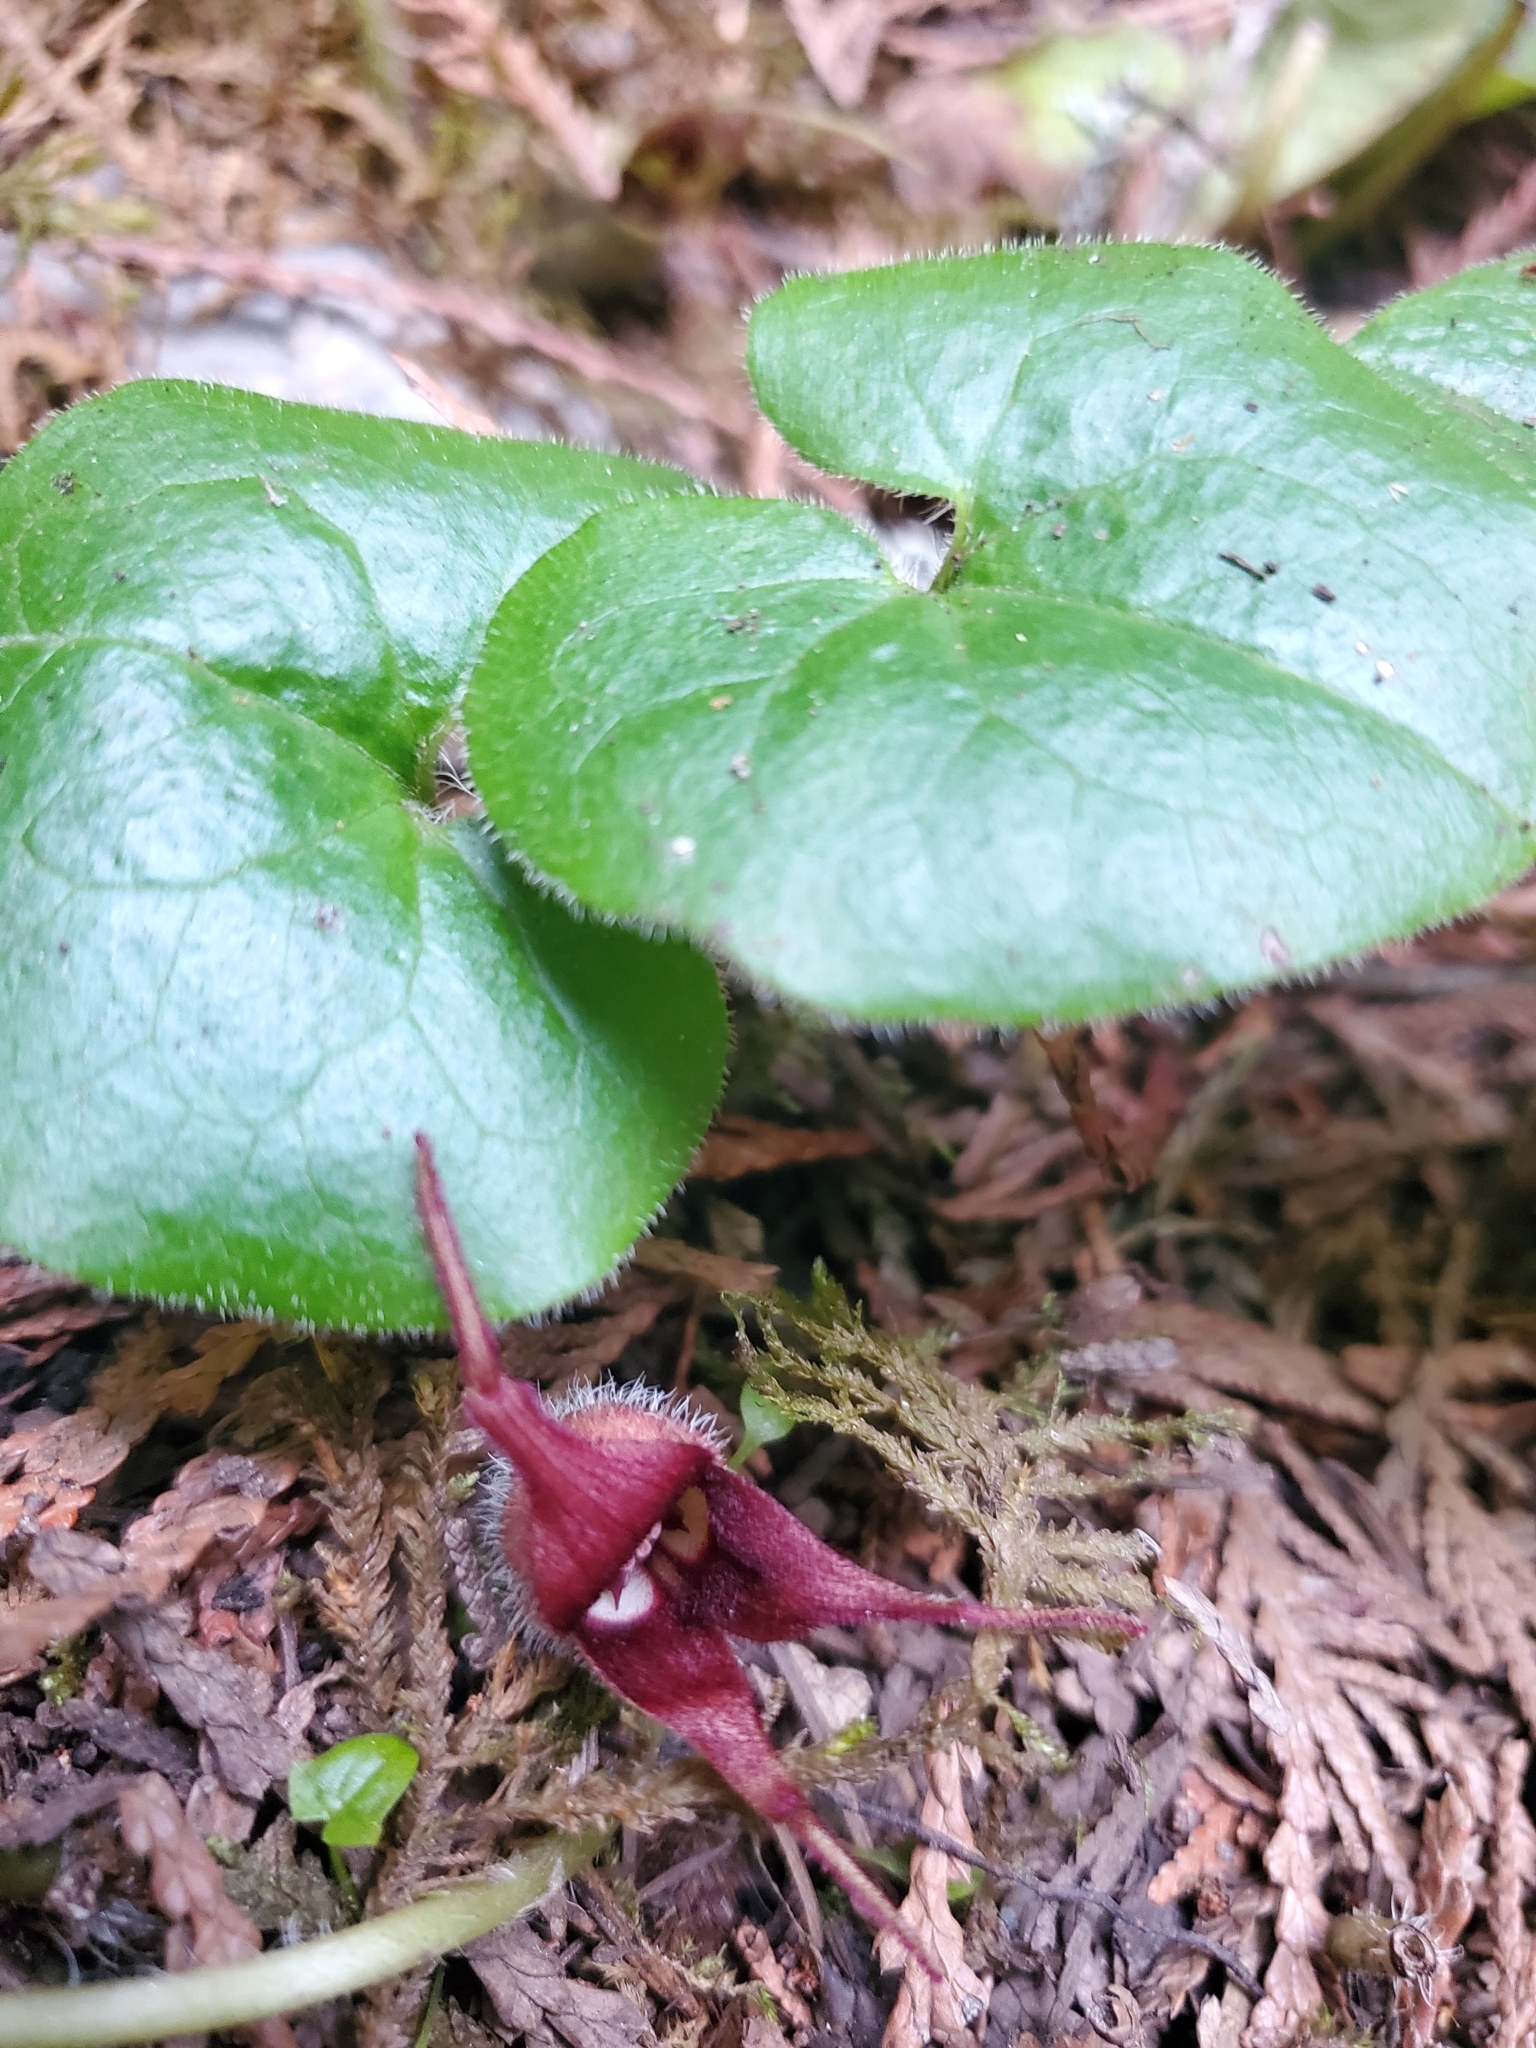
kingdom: Plantae
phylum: Tracheophyta
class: Magnoliopsida
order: Piperales
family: Aristolochiaceae
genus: Asarum
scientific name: Asarum caudatum
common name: Wild ginger
